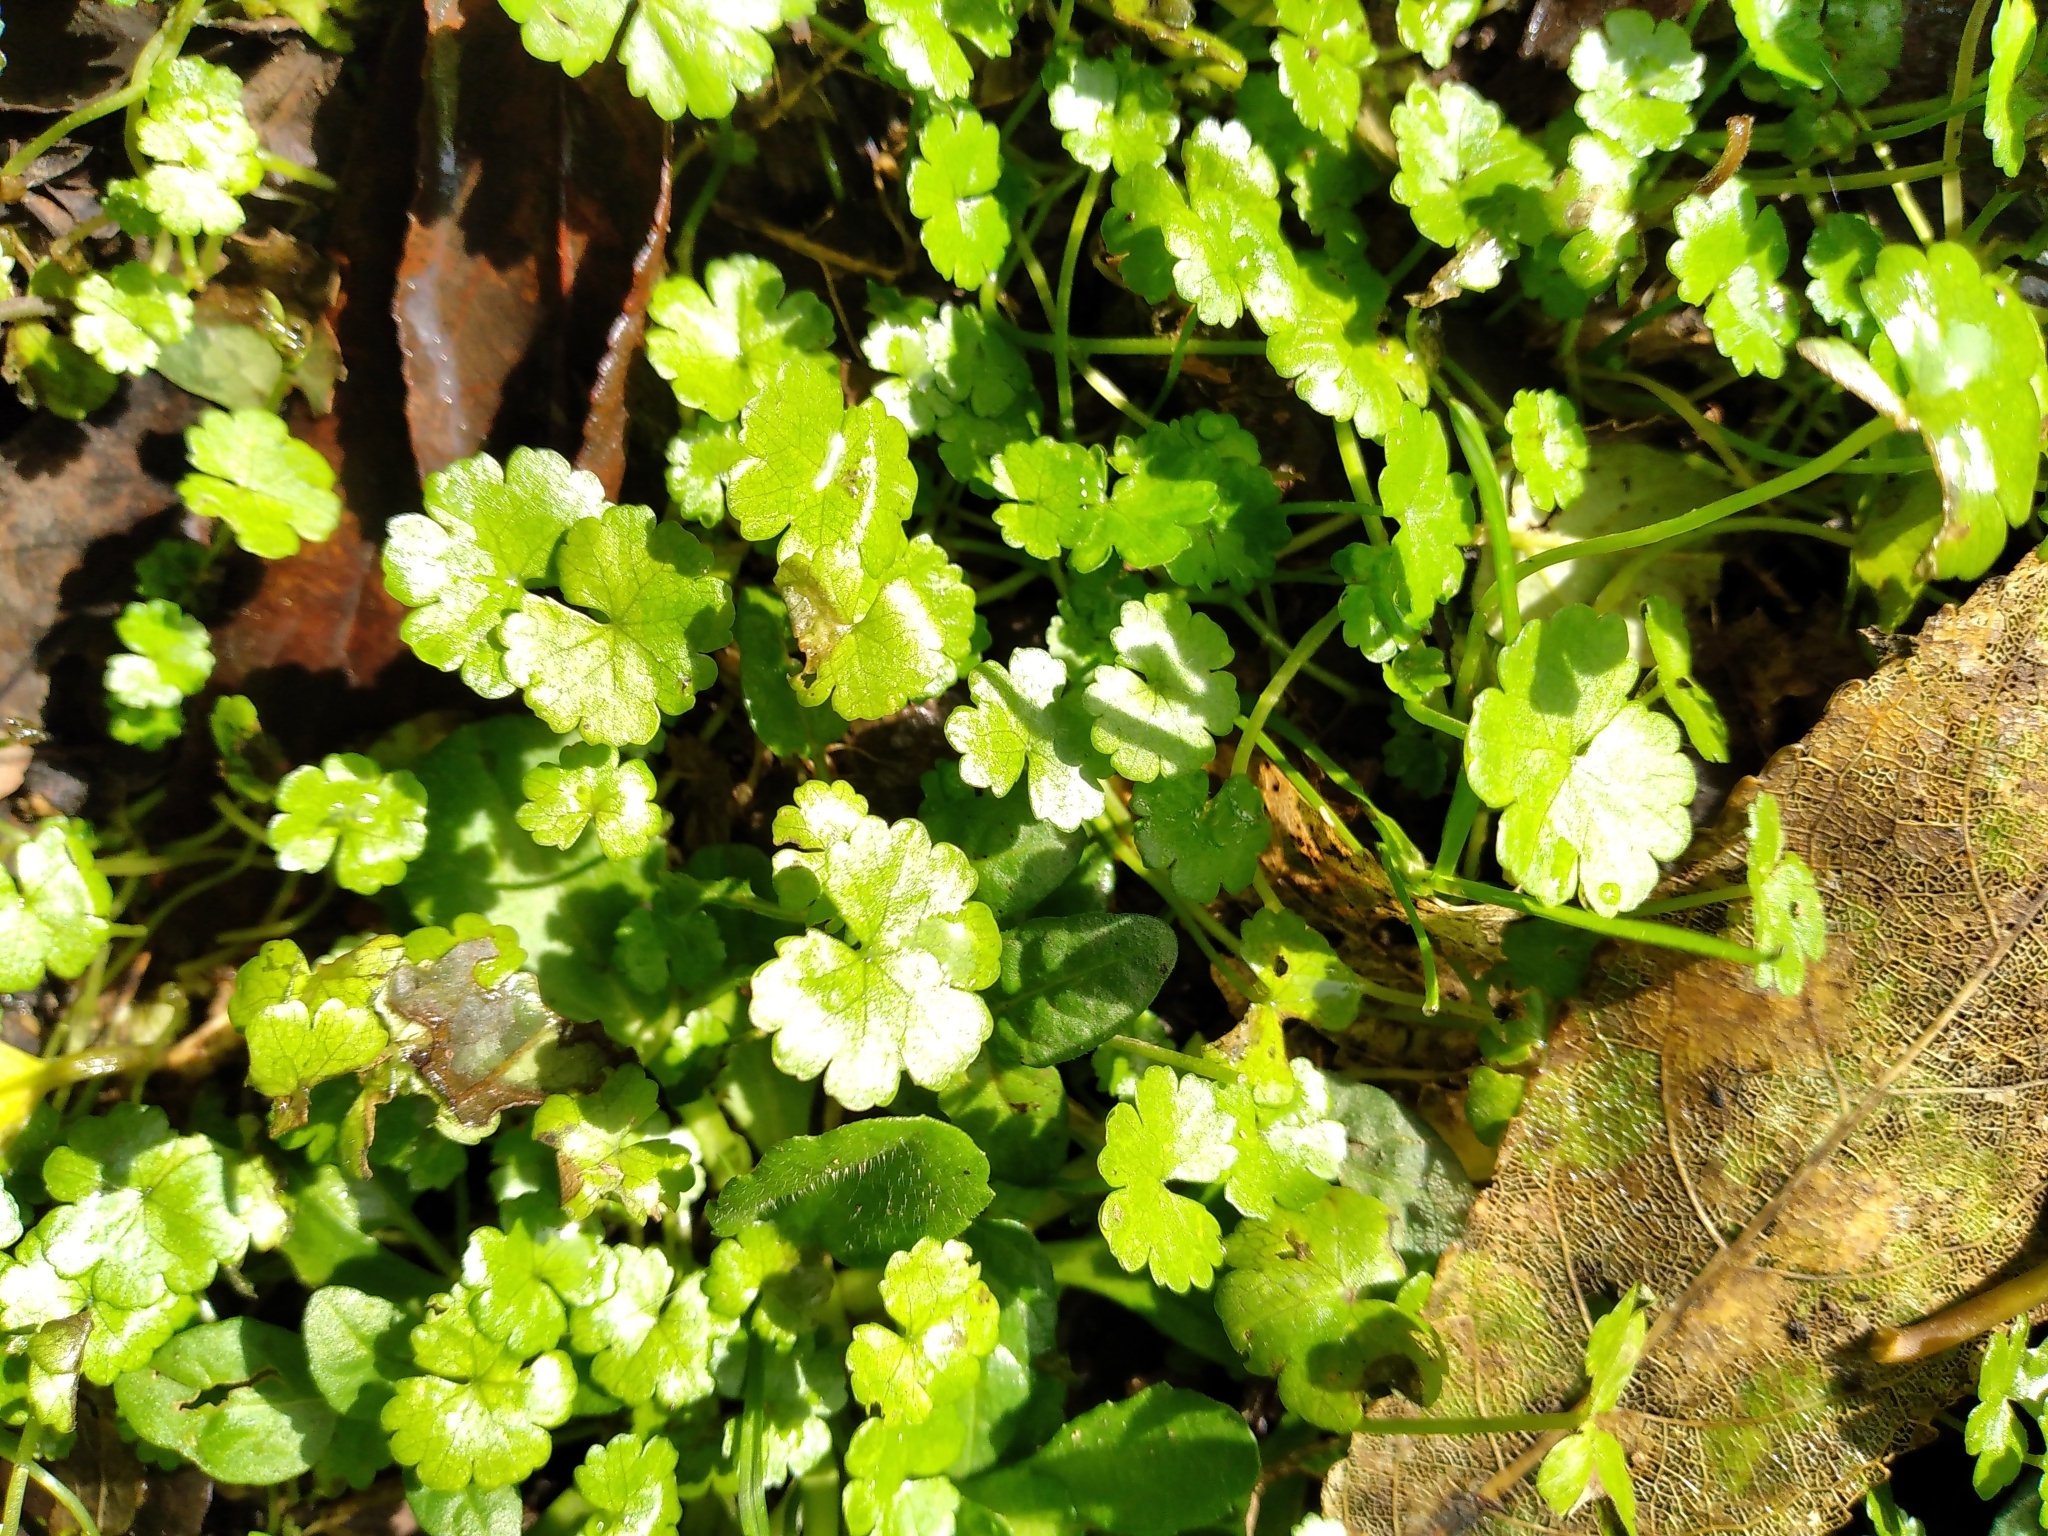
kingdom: Plantae
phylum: Tracheophyta
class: Magnoliopsida
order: Apiales
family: Araliaceae
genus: Hydrocotyle
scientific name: Hydrocotyle heteromeria
